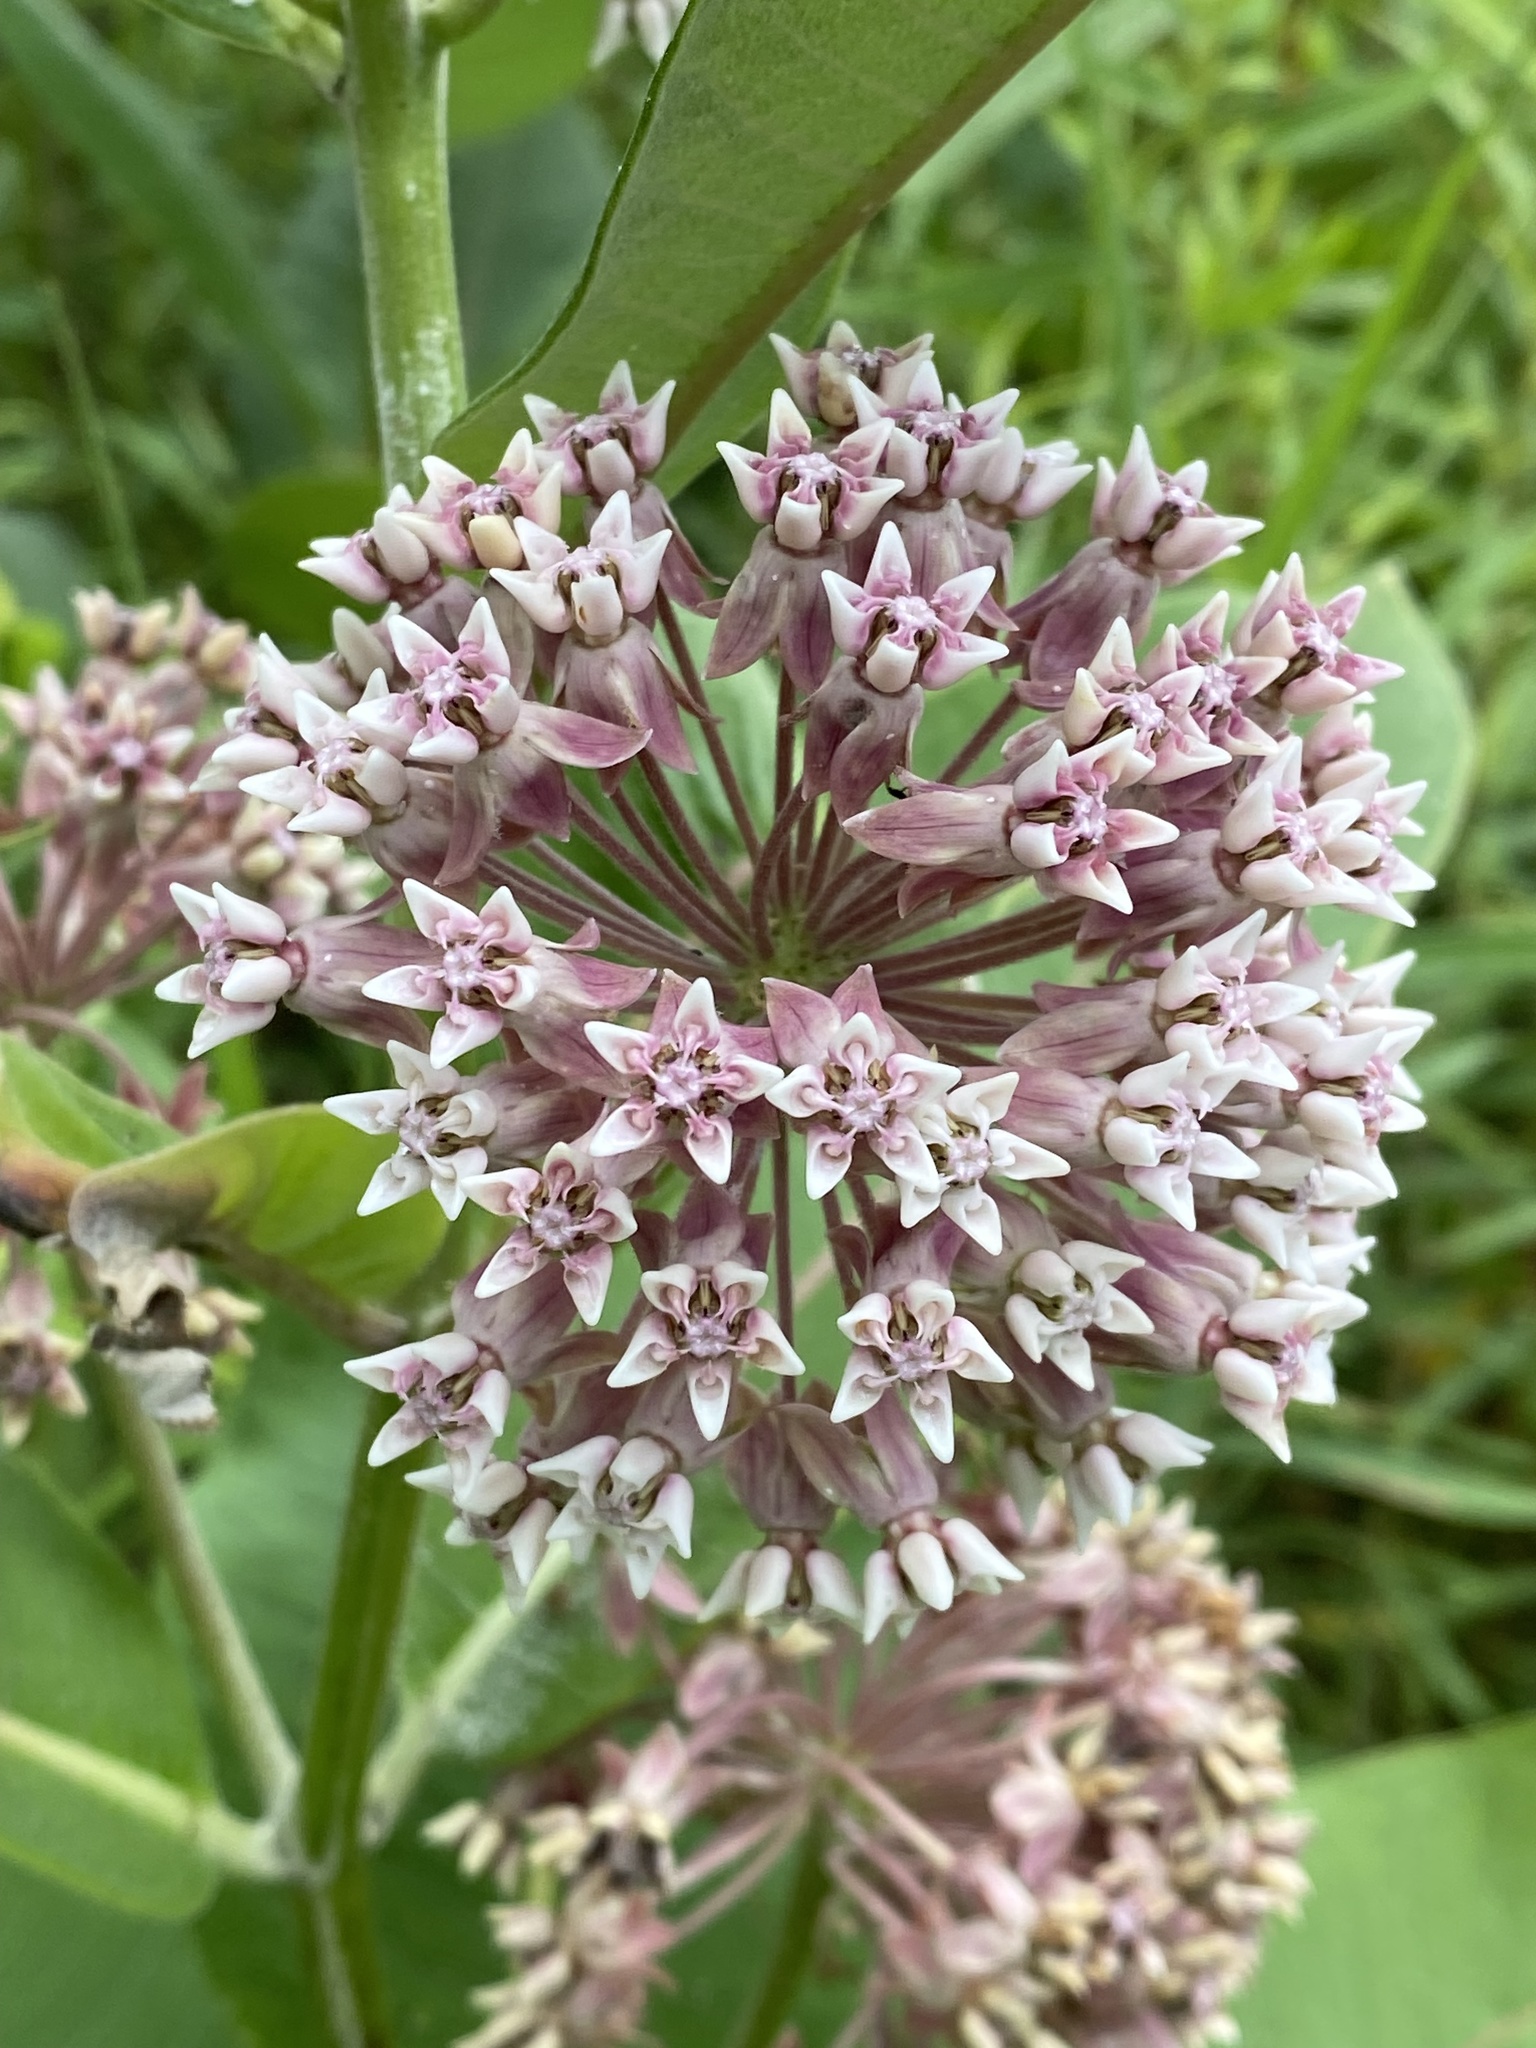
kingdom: Plantae
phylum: Tracheophyta
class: Magnoliopsida
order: Gentianales
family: Apocynaceae
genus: Asclepias
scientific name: Asclepias syriaca
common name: Common milkweed
